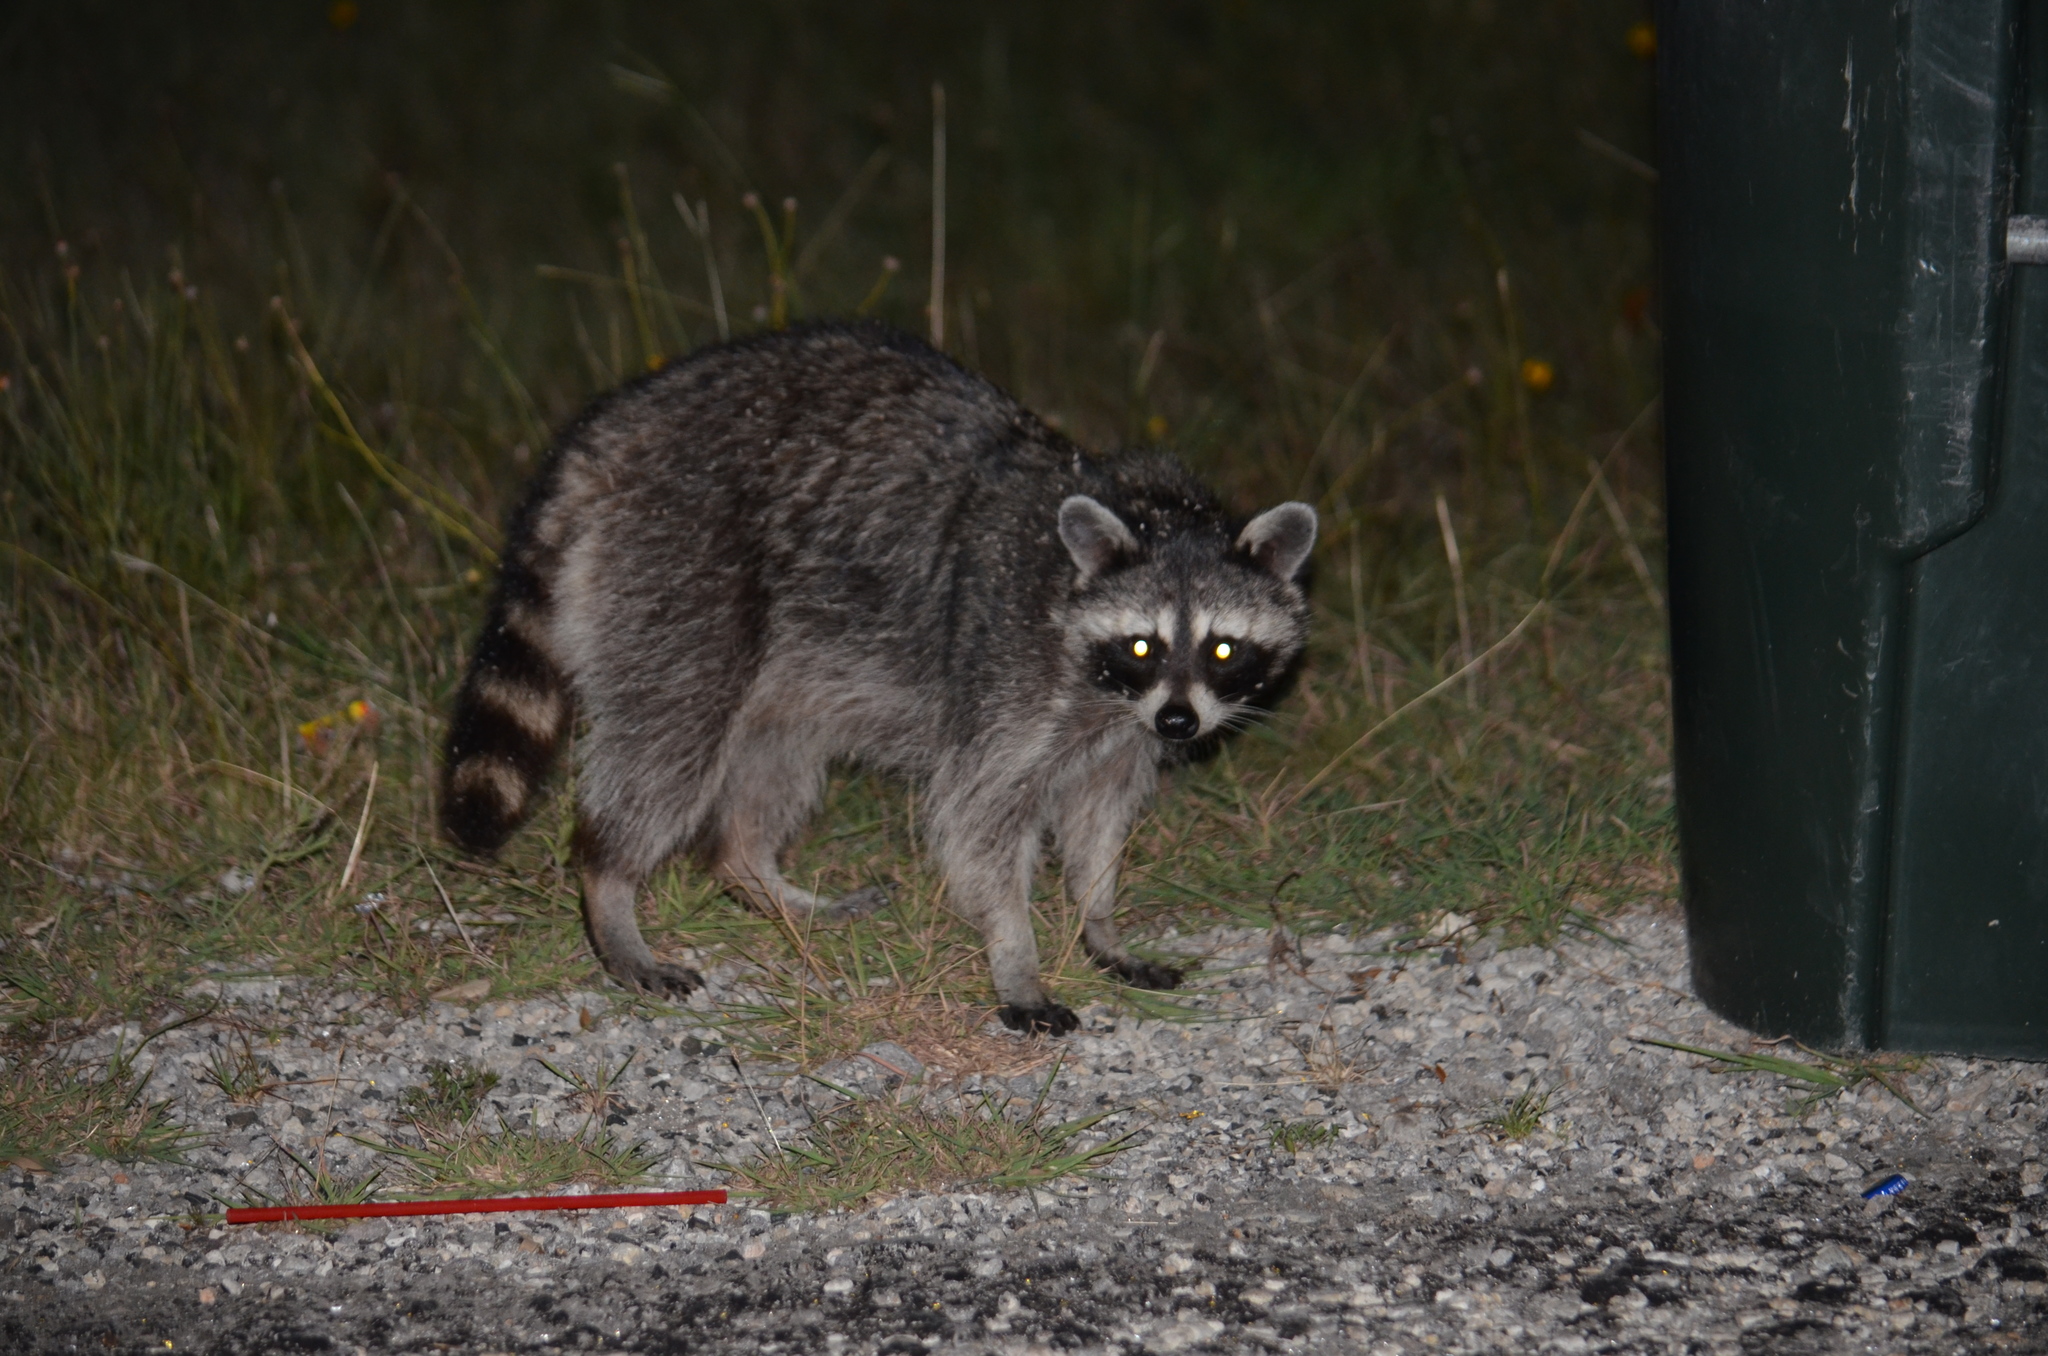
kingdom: Animalia
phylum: Chordata
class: Mammalia
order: Carnivora
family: Procyonidae
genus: Procyon
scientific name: Procyon lotor
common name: Raccoon
